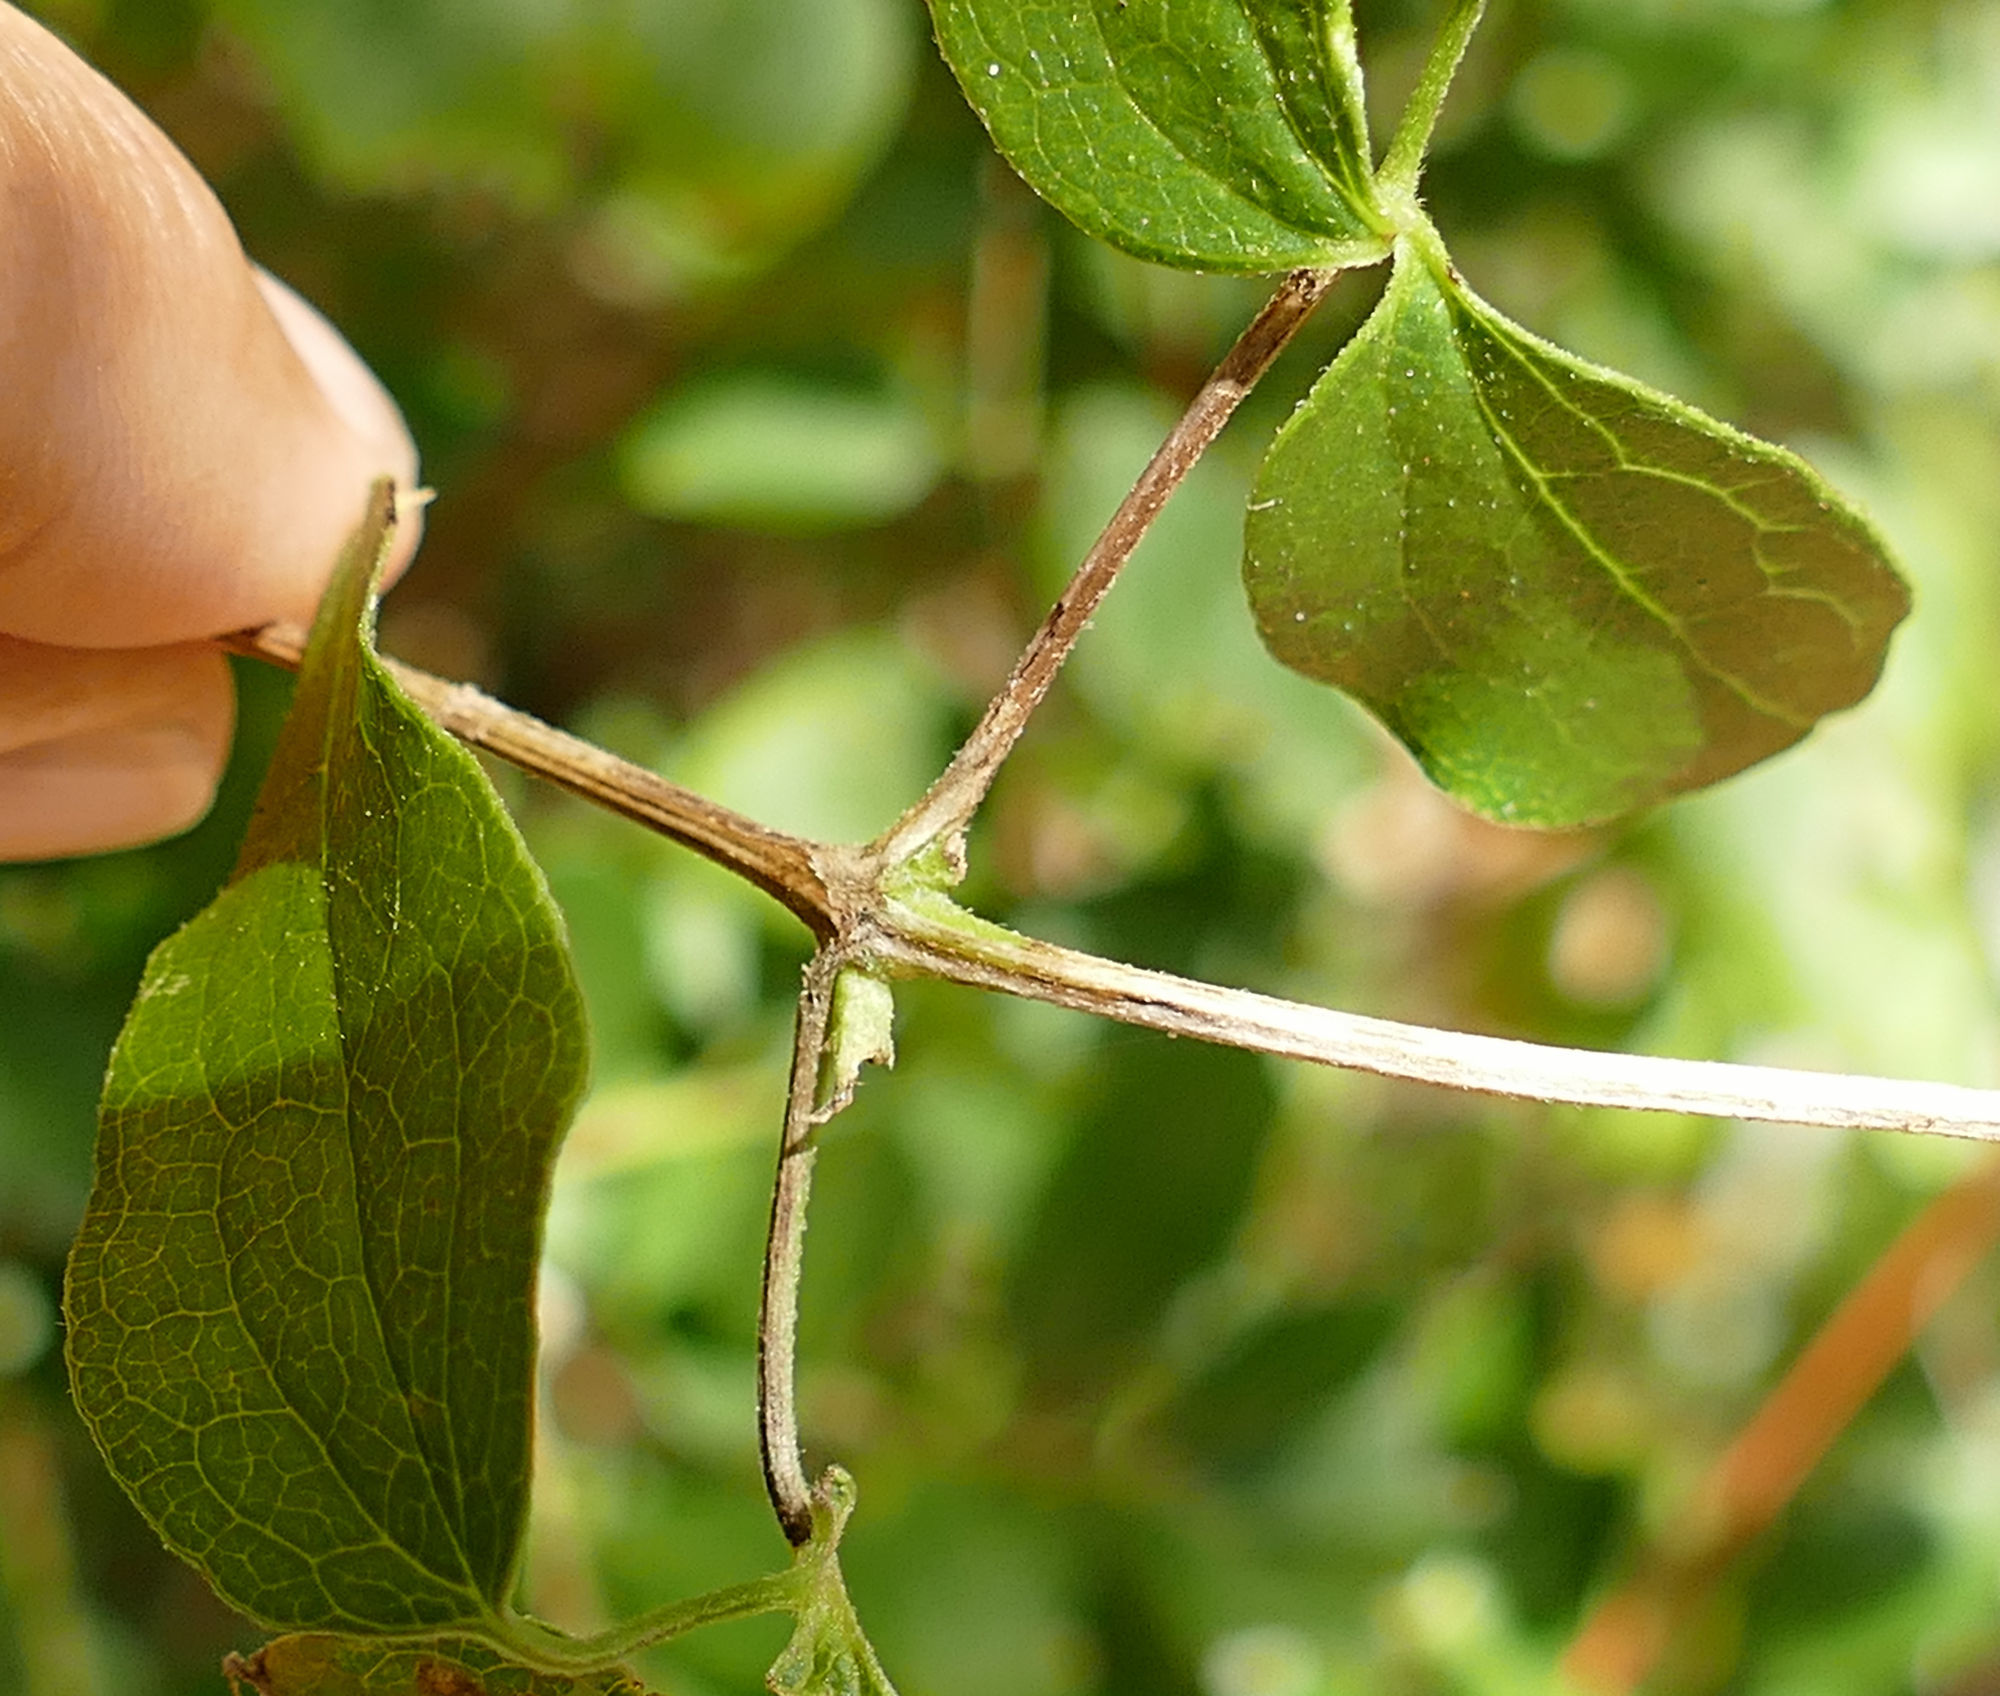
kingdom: Plantae
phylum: Tracheophyta
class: Magnoliopsida
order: Ranunculales
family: Ranunculaceae
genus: Clematis
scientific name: Clematis pitcheri
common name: Bellflower clematis
